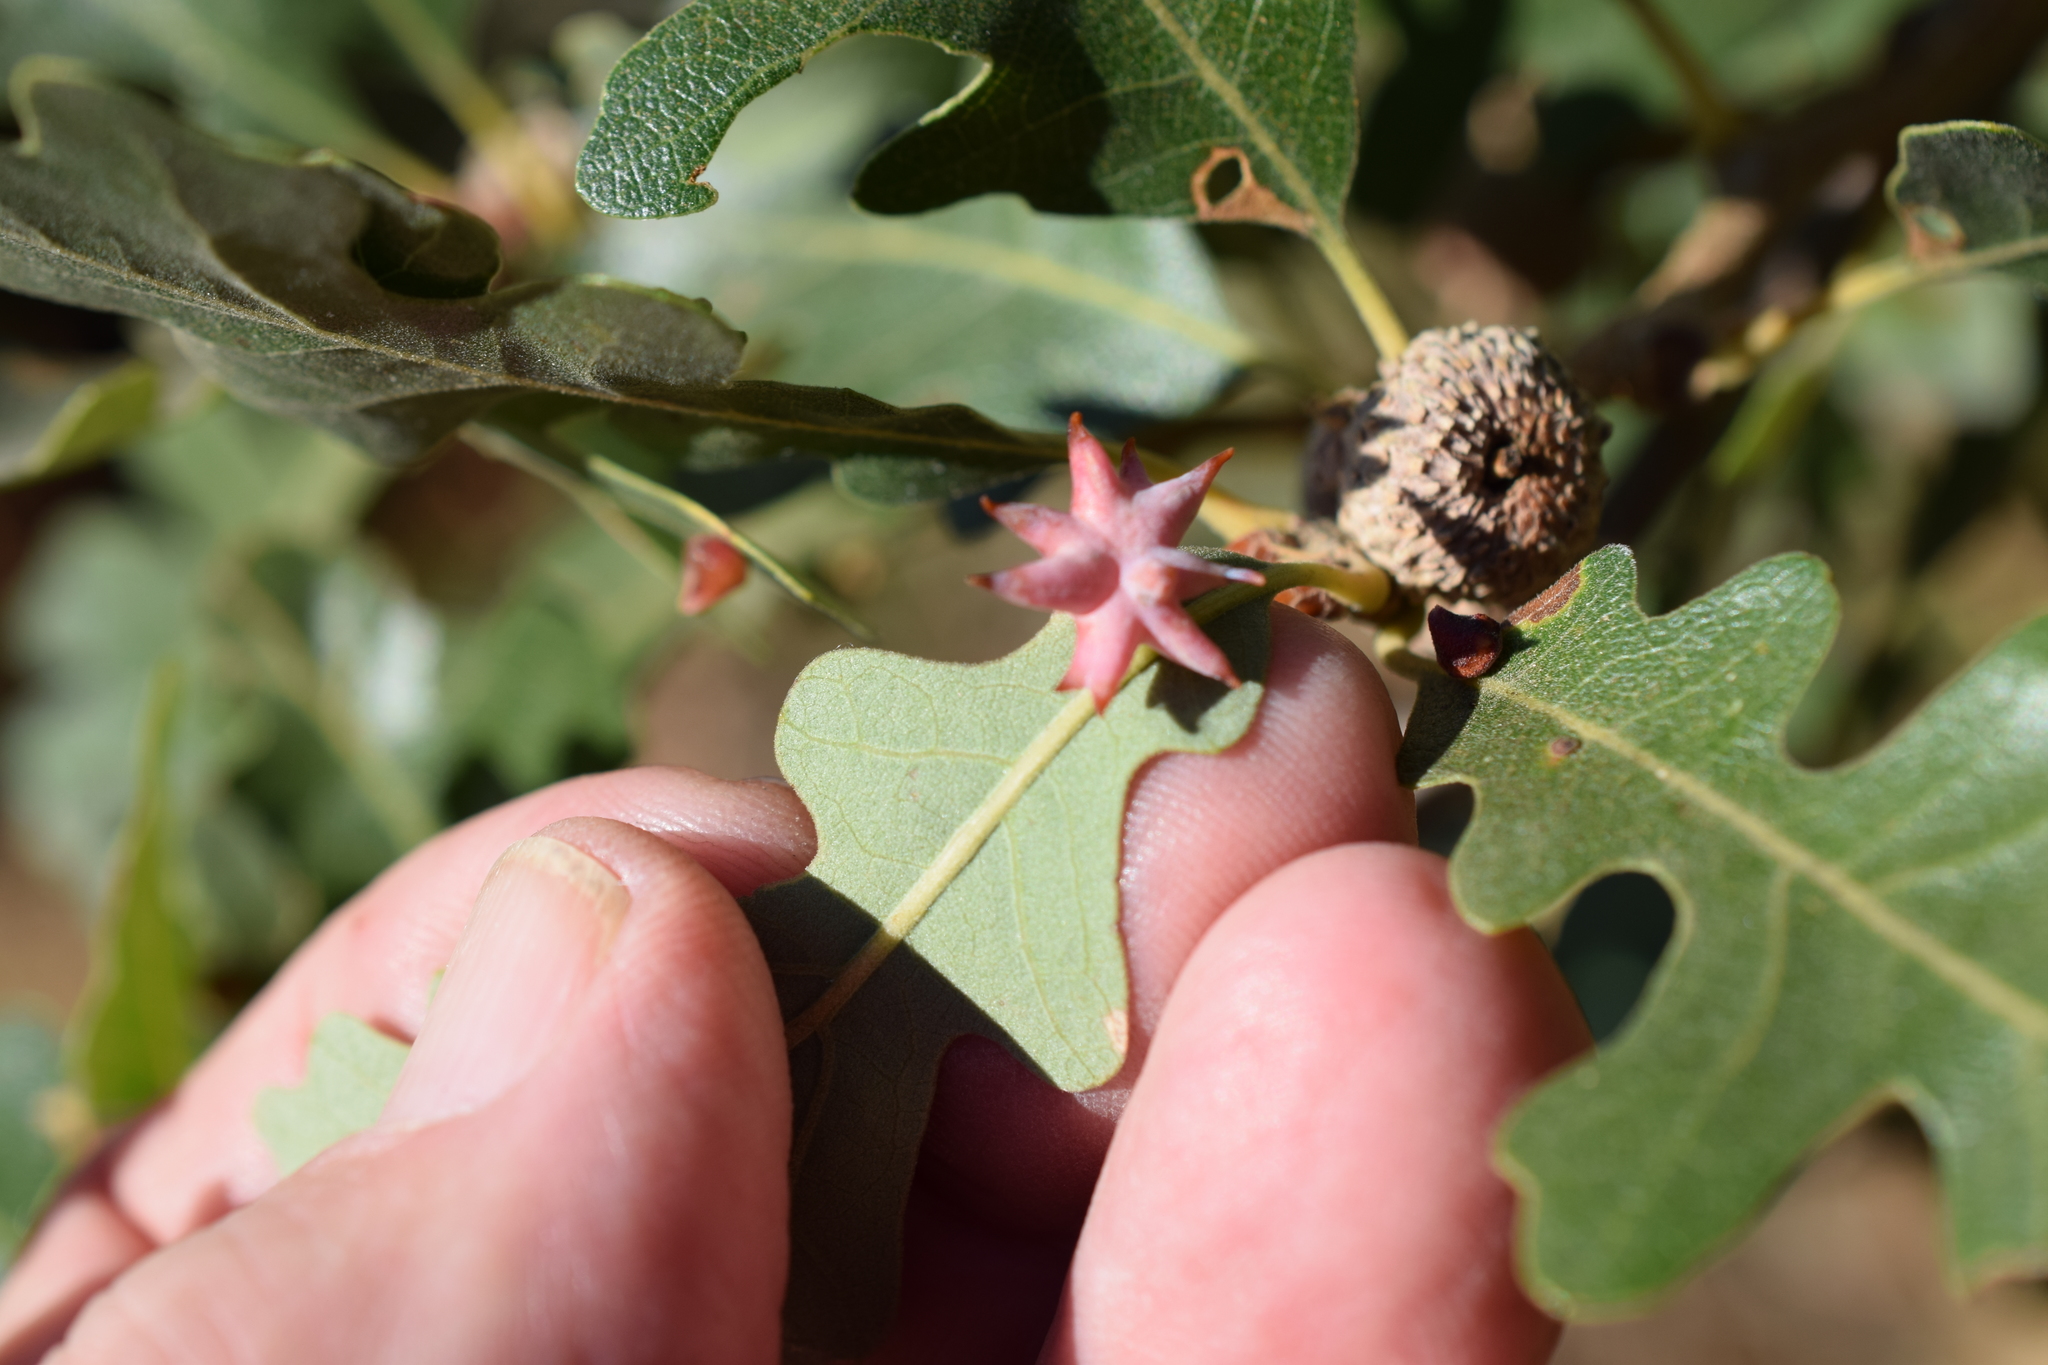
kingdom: Animalia
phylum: Arthropoda
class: Insecta
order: Hymenoptera
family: Cynipidae
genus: Cynips
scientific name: Cynips douglasi
